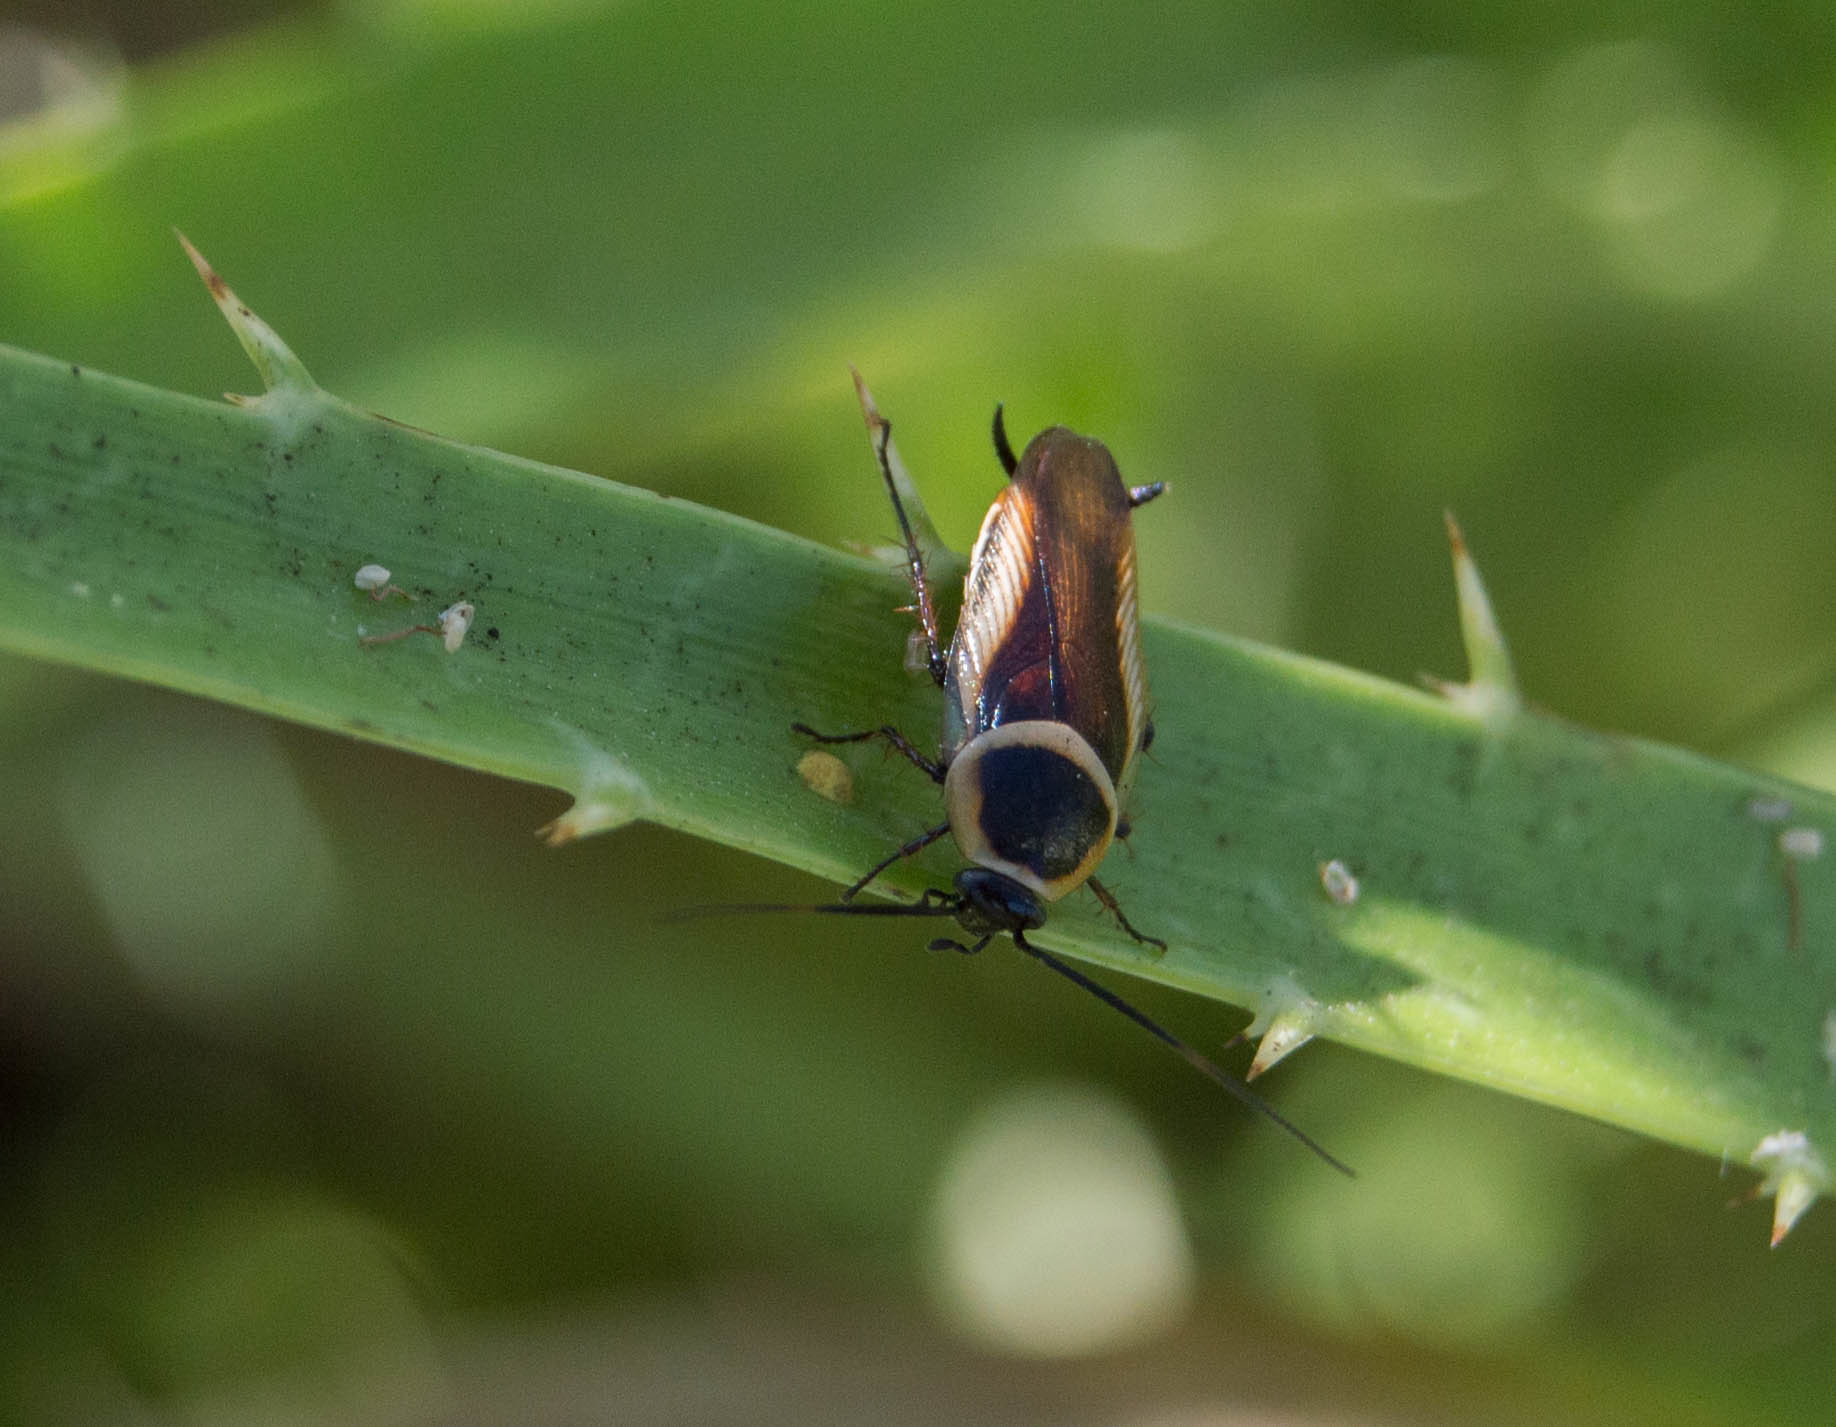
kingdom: Animalia
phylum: Arthropoda
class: Insecta
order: Blattodea
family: Ectobiidae
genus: Pseudomops
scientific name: Pseudomops neglectus
